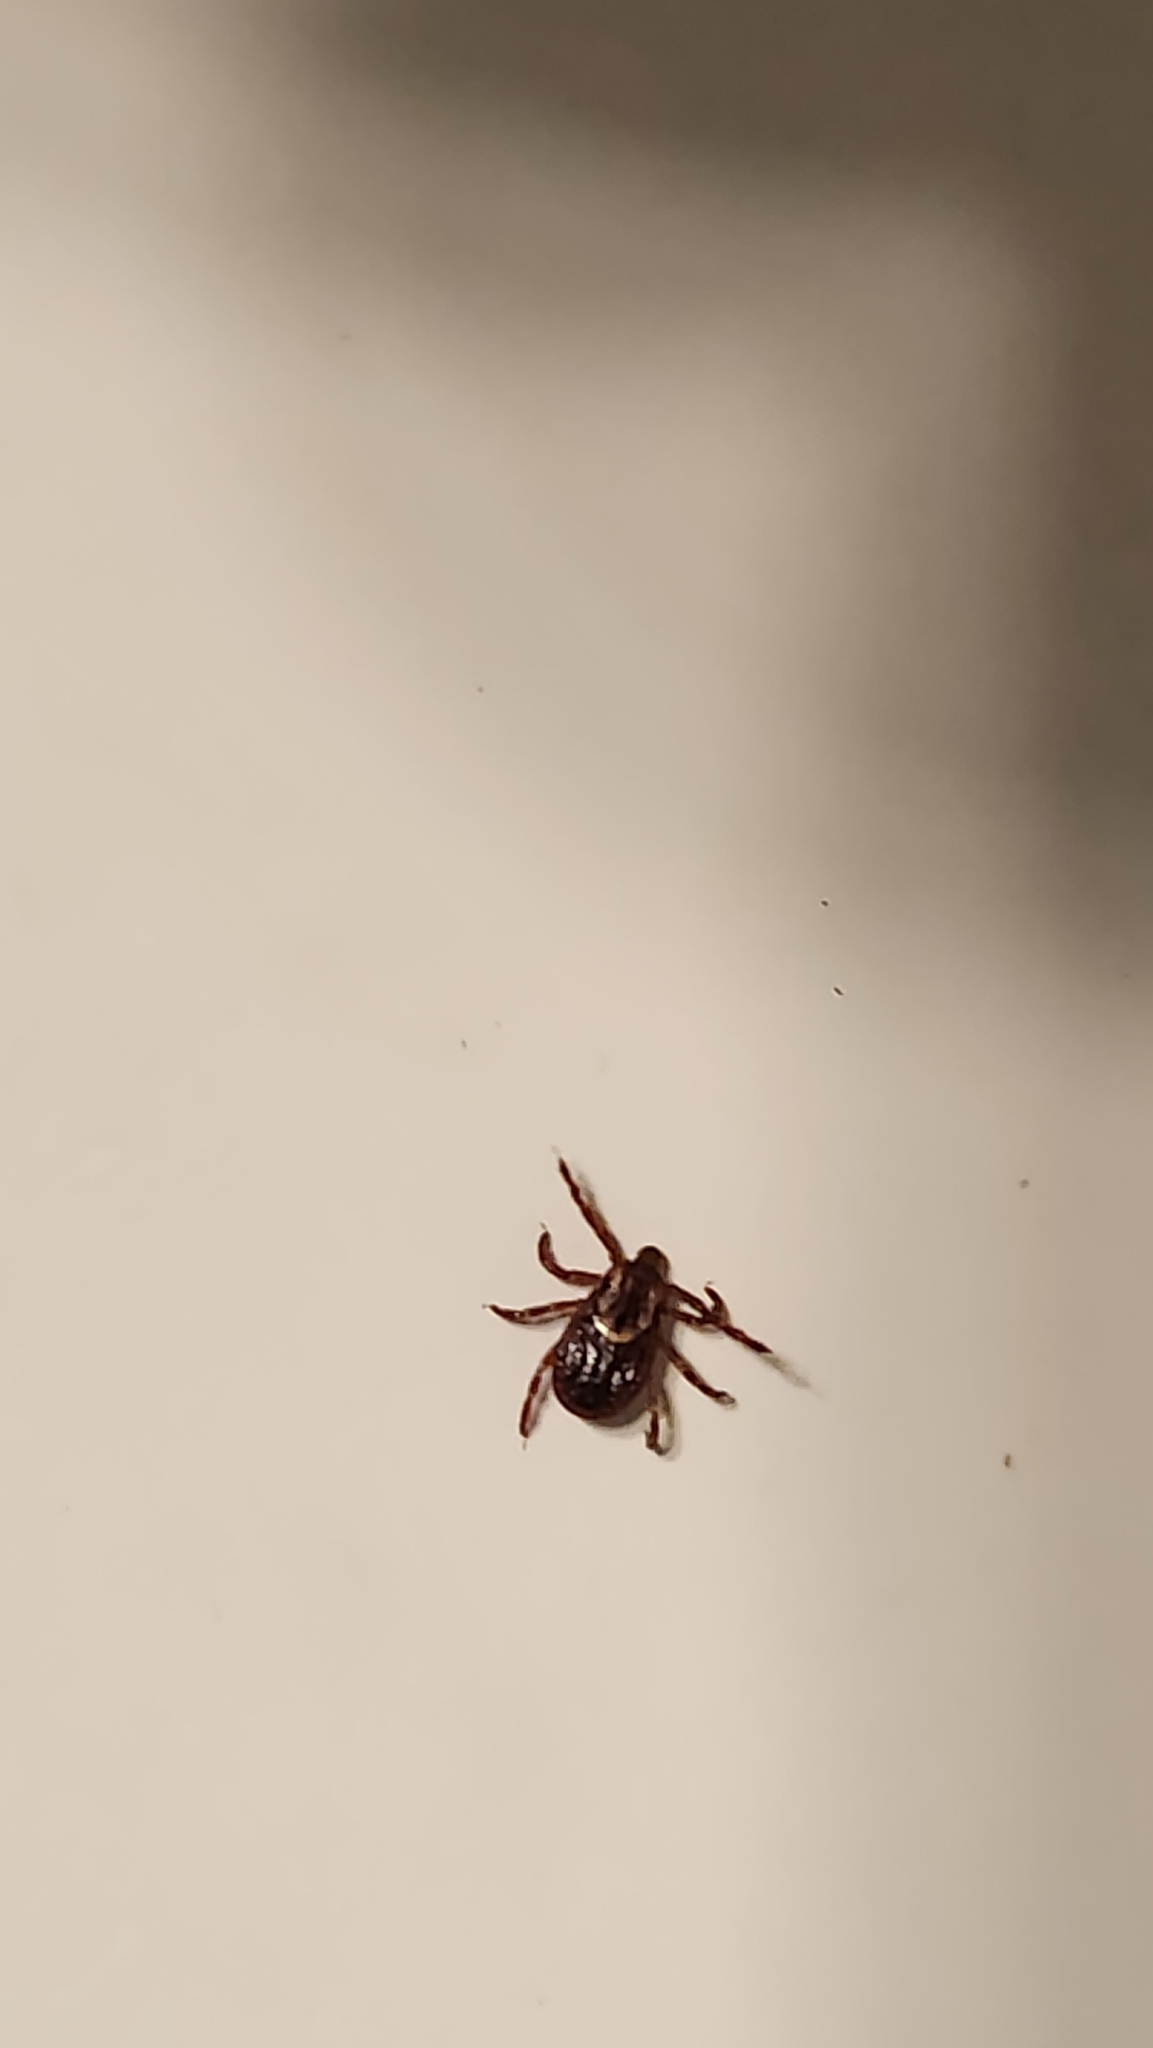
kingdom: Animalia
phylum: Arthropoda
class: Arachnida
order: Ixodida
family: Ixodidae
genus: Dermacentor
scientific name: Dermacentor variabilis
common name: American dog tick
